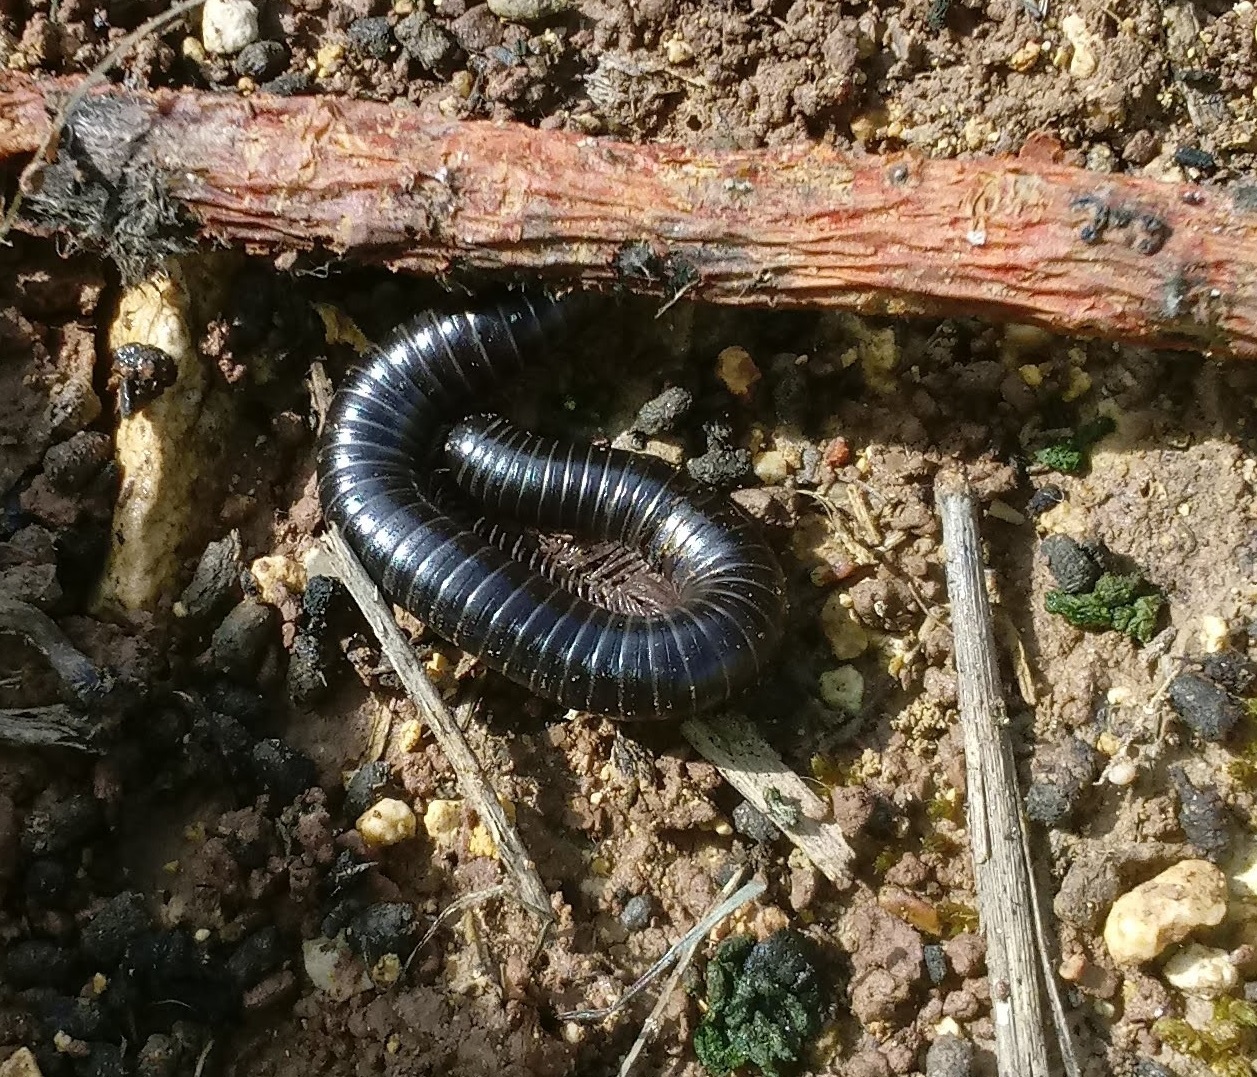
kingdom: Animalia
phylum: Arthropoda
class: Diplopoda
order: Spirostreptida
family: Spirostreptidae
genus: Archispirostreptus
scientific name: Archispirostreptus syriacus
